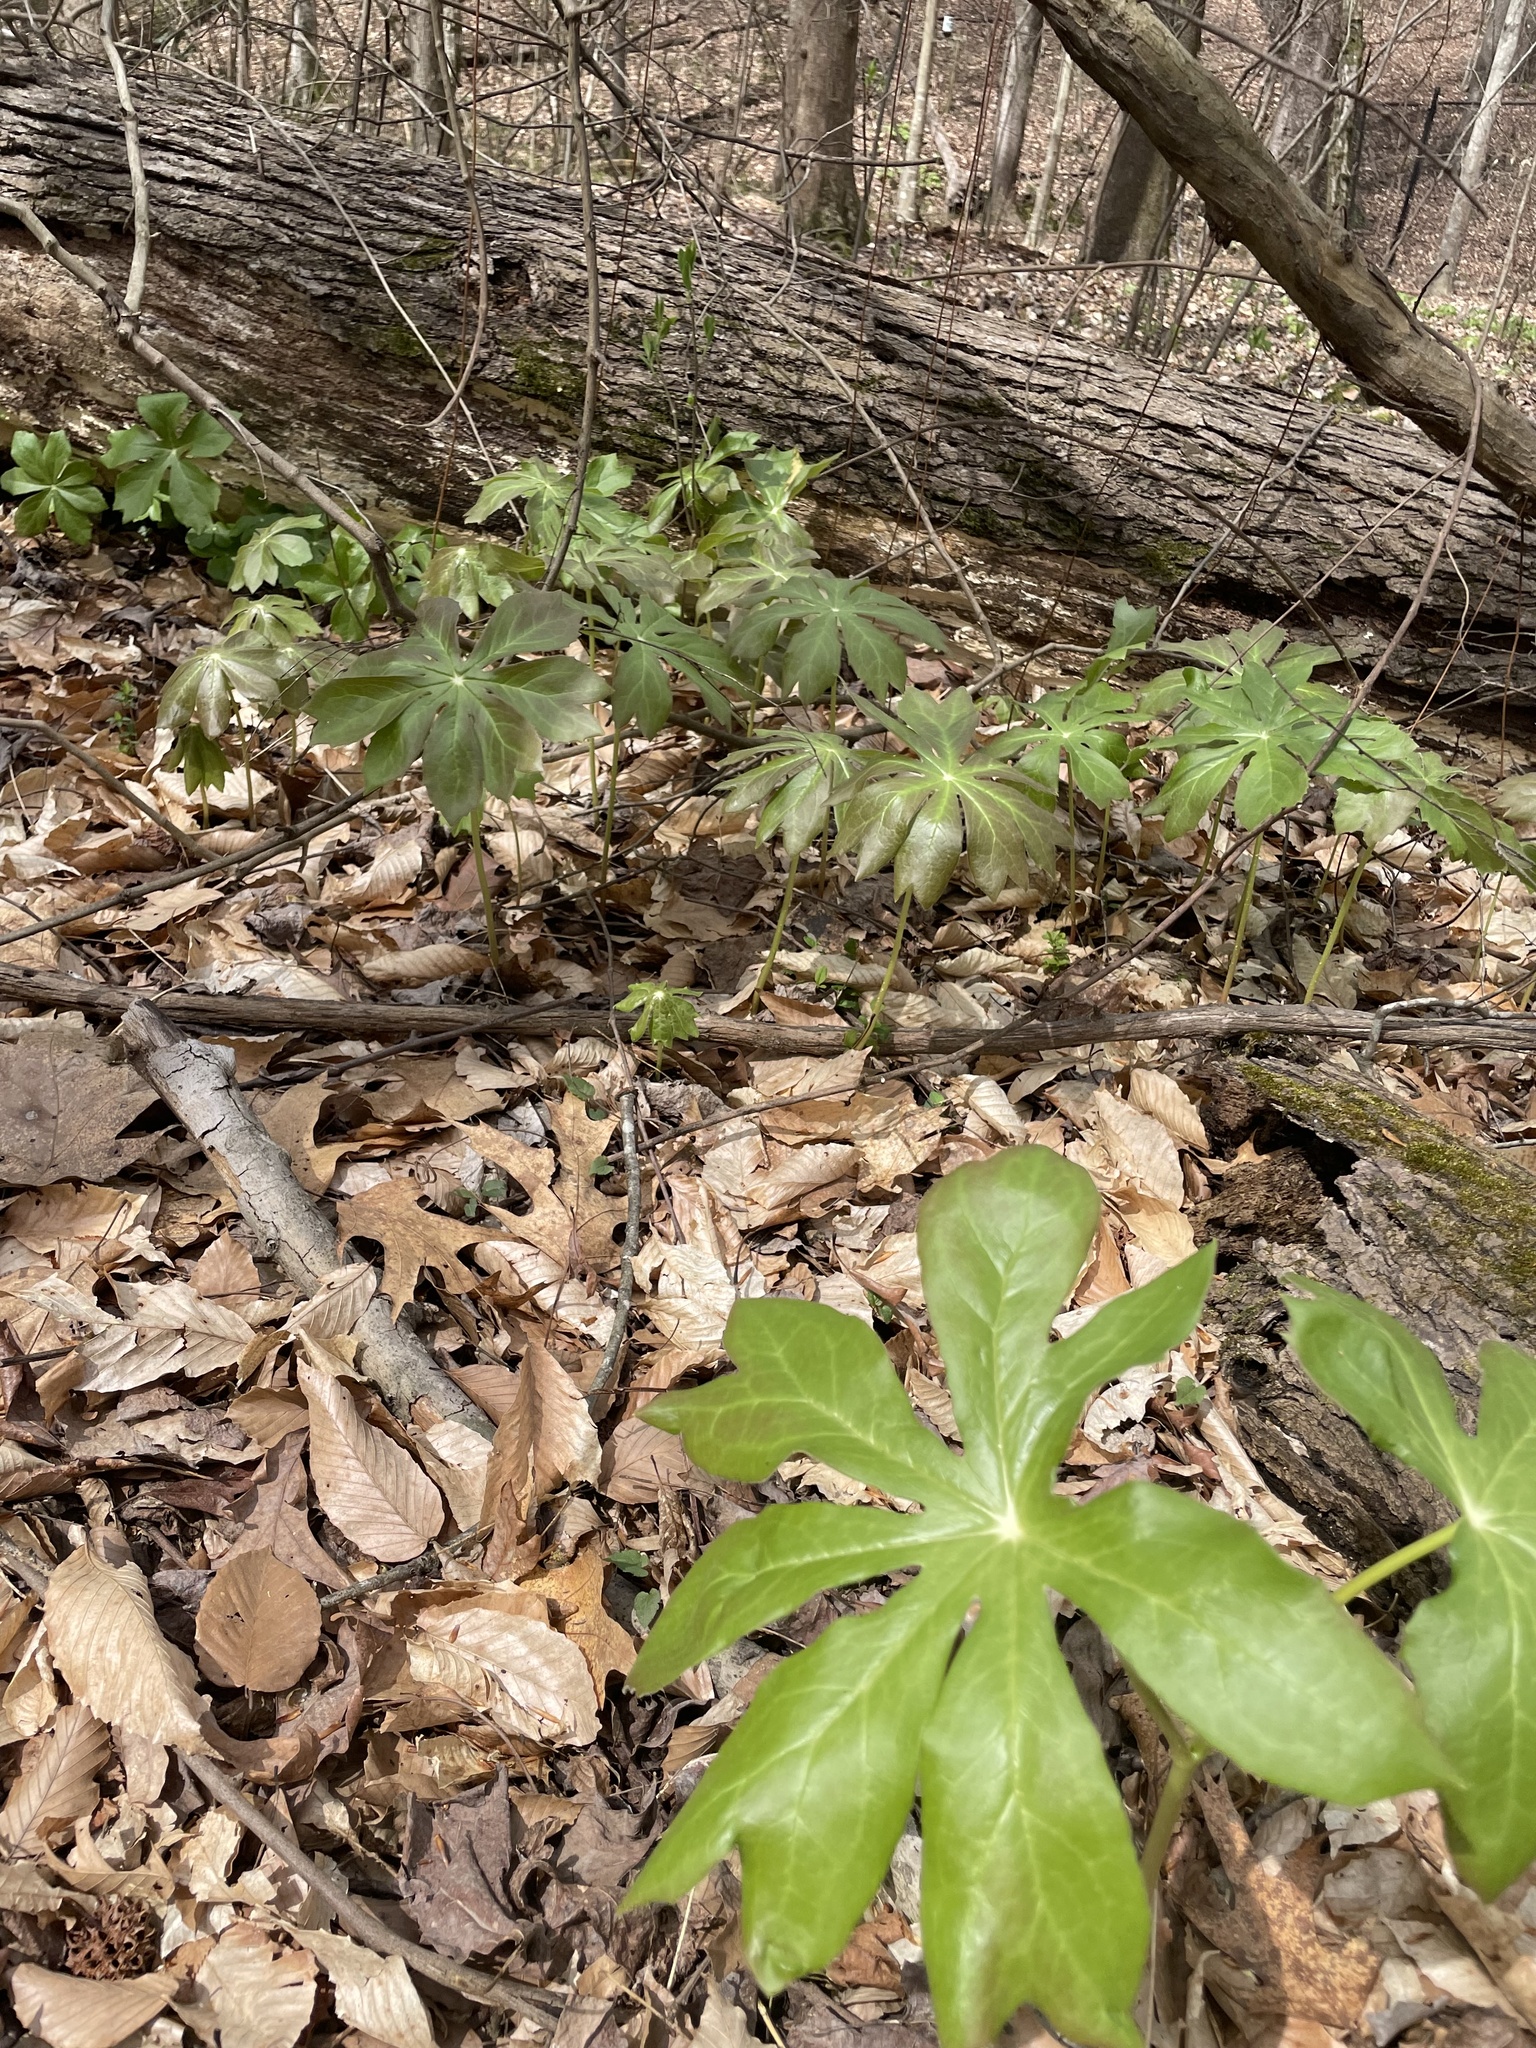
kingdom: Plantae
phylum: Tracheophyta
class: Magnoliopsida
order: Ranunculales
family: Berberidaceae
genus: Podophyllum
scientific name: Podophyllum peltatum
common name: Wild mandrake
